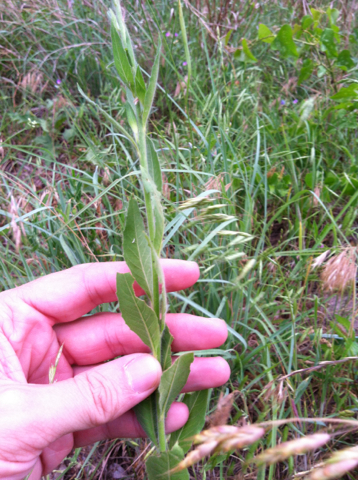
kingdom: Plantae
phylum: Tracheophyta
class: Magnoliopsida
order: Myrtales
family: Onagraceae
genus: Oenothera
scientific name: Oenothera curtiflora
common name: Velvetweed
